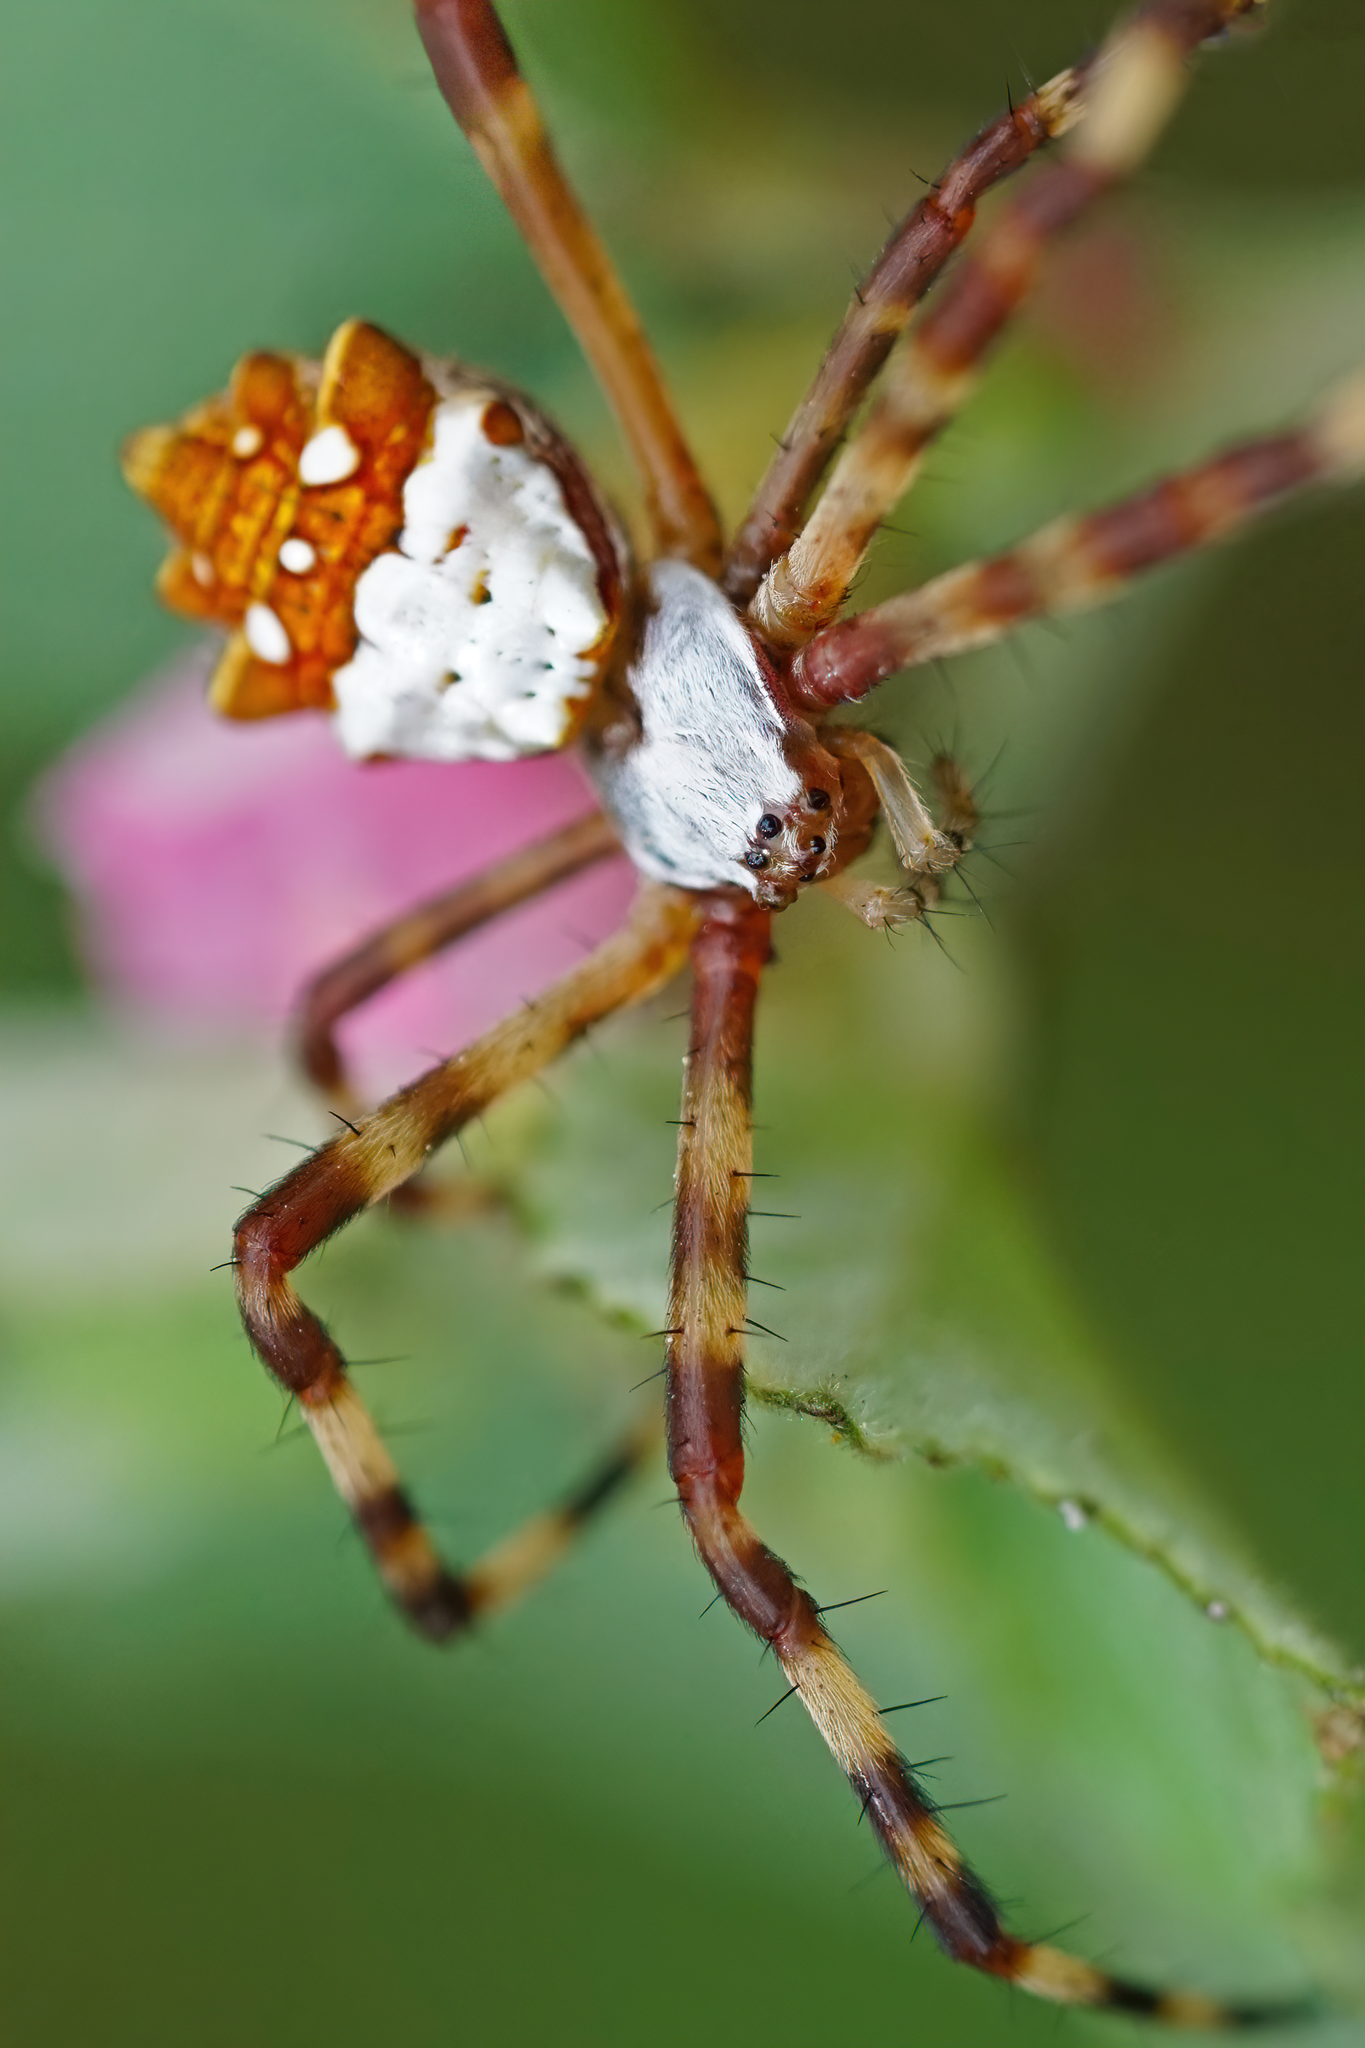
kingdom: Animalia
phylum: Arthropoda
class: Arachnida
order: Araneae
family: Araneidae
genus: Argiope
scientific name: Argiope argentata
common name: Orb weavers
